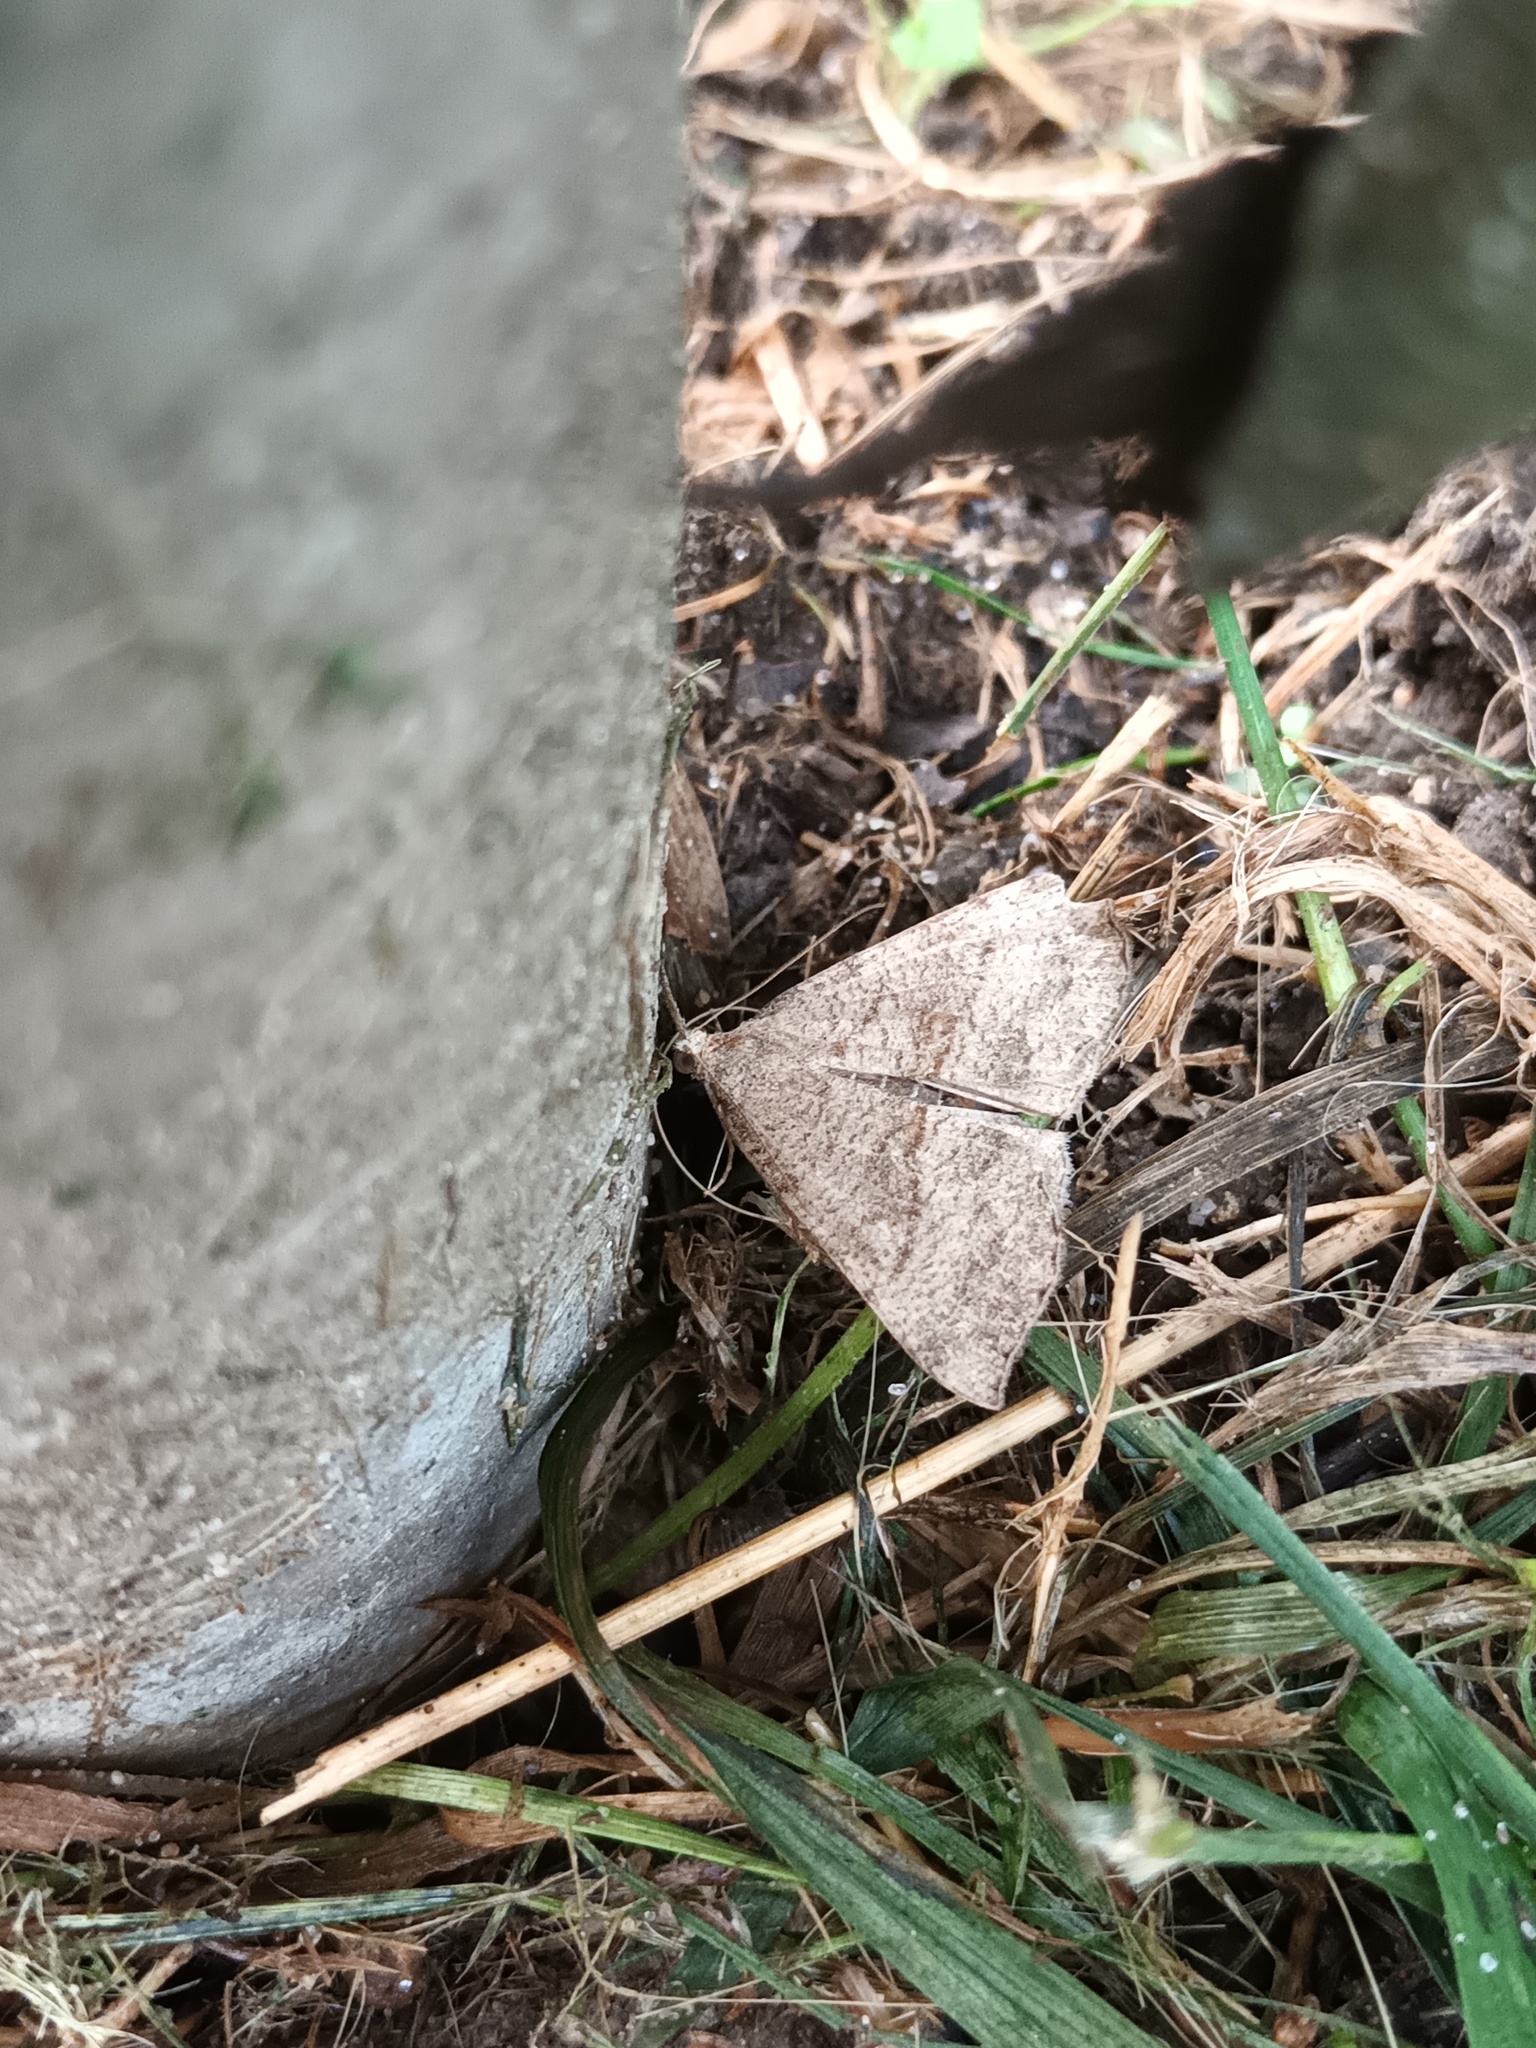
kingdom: Animalia
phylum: Arthropoda
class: Insecta
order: Lepidoptera
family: Erebidae
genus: Hypena
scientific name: Hypena proboscidalis
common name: Snout
